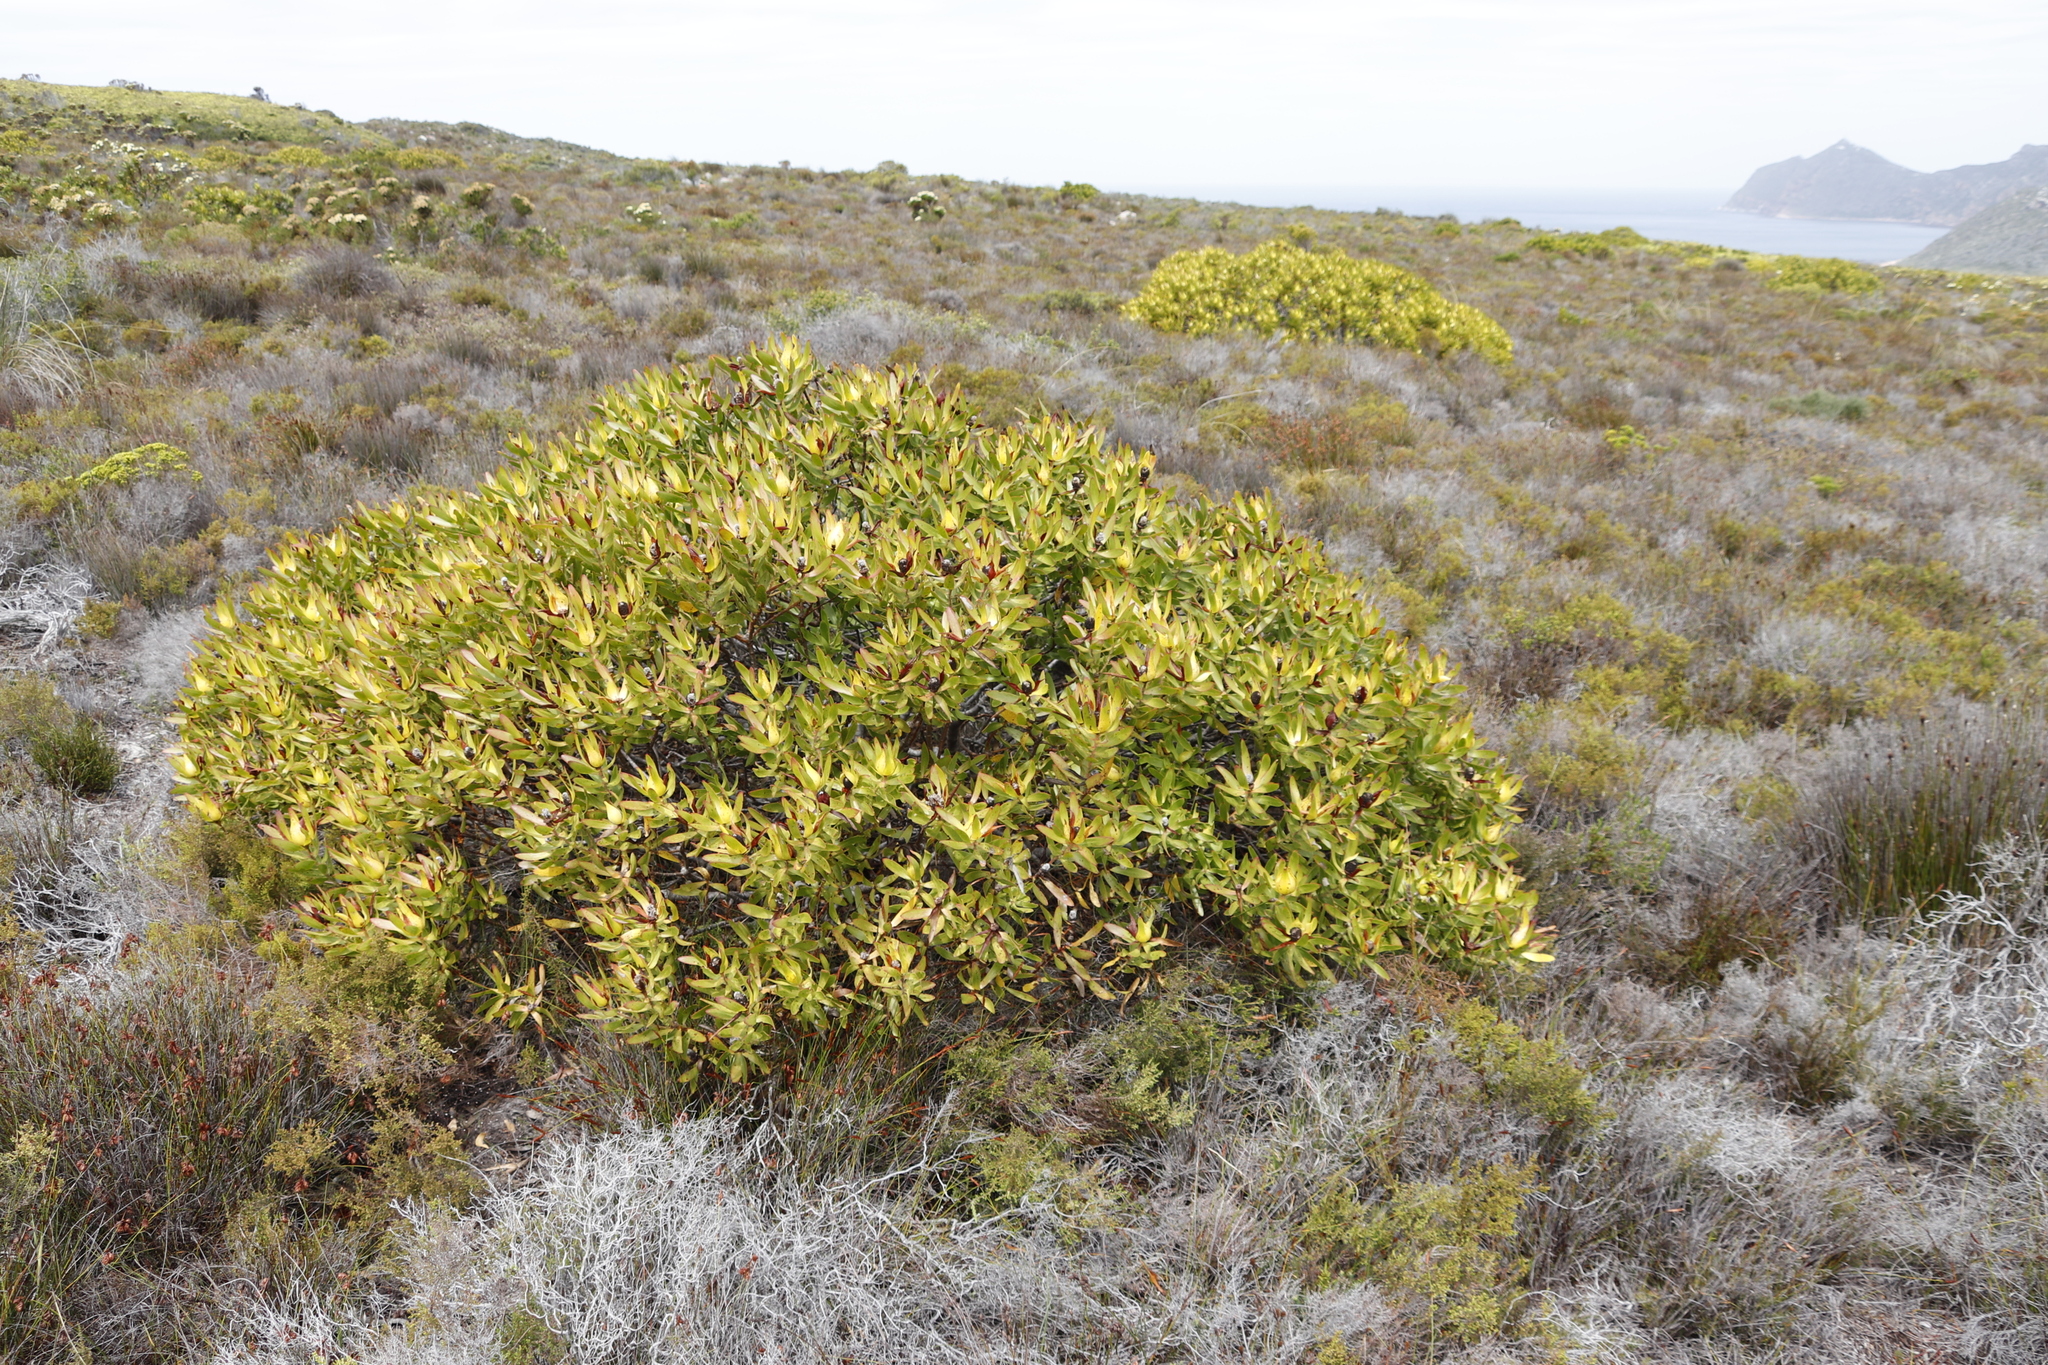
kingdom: Plantae
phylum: Tracheophyta
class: Magnoliopsida
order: Proteales
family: Proteaceae
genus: Leucadendron
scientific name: Leucadendron laureolum
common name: Golden sunshinebush
